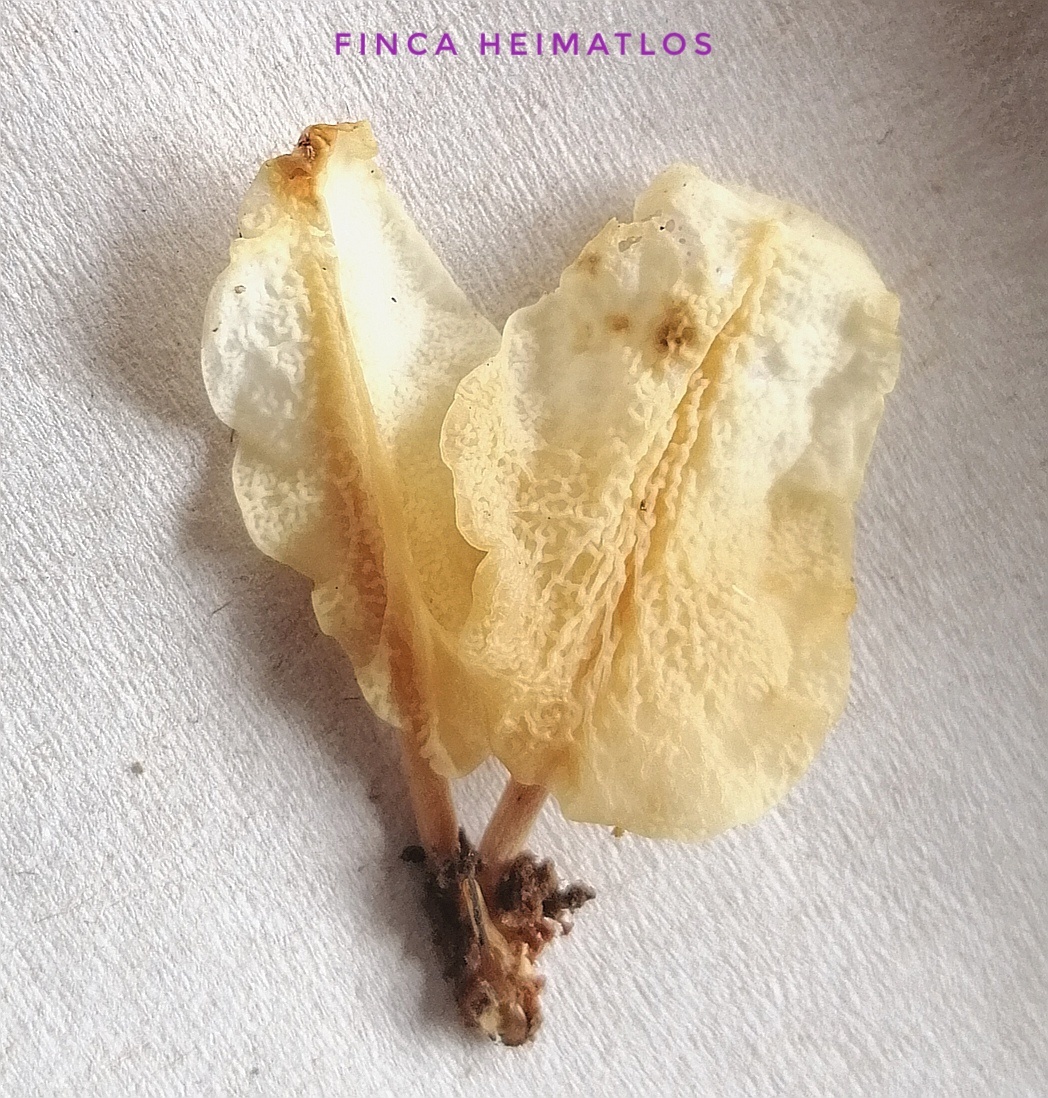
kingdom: Fungi
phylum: Basidiomycota
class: Dacrymycetes
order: Dacrymycetales
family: Dacrymycetaceae
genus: Dacryopinax
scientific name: Dacryopinax martinii
